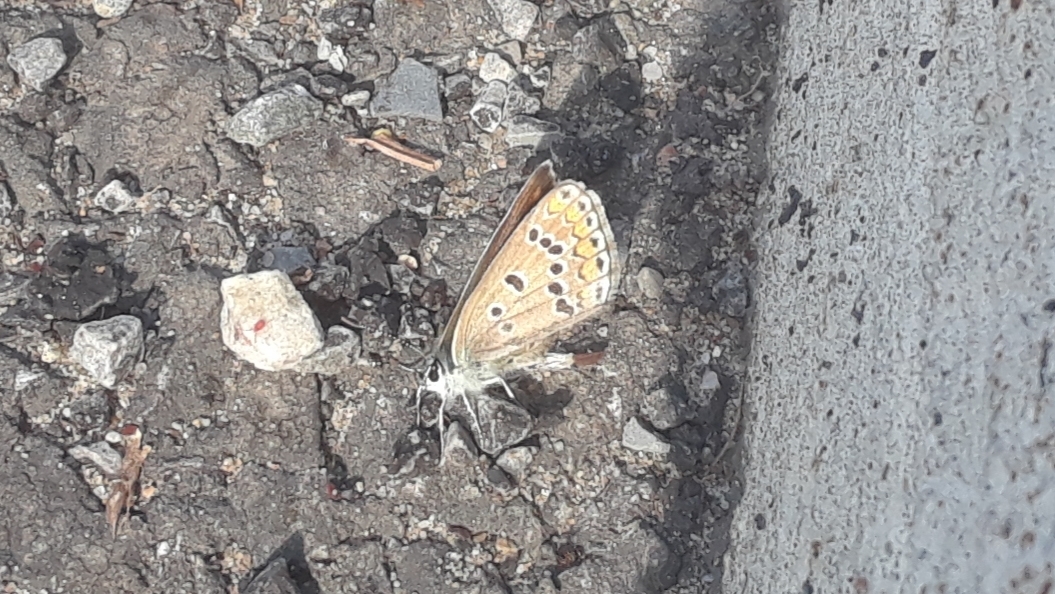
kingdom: Animalia
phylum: Arthropoda
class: Insecta
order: Lepidoptera
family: Lycaenidae
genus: Polyommatus
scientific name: Polyommatus icarus
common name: Common blue
